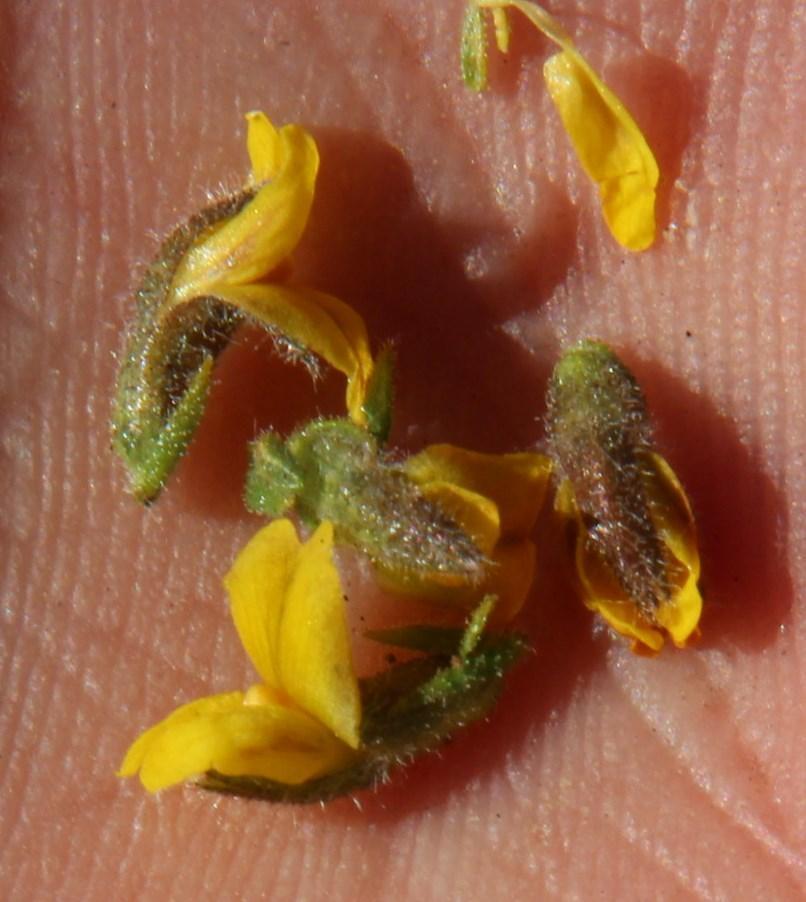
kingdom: Plantae
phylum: Tracheophyta
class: Magnoliopsida
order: Fabales
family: Fabaceae
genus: Melolobium
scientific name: Melolobium candicans
